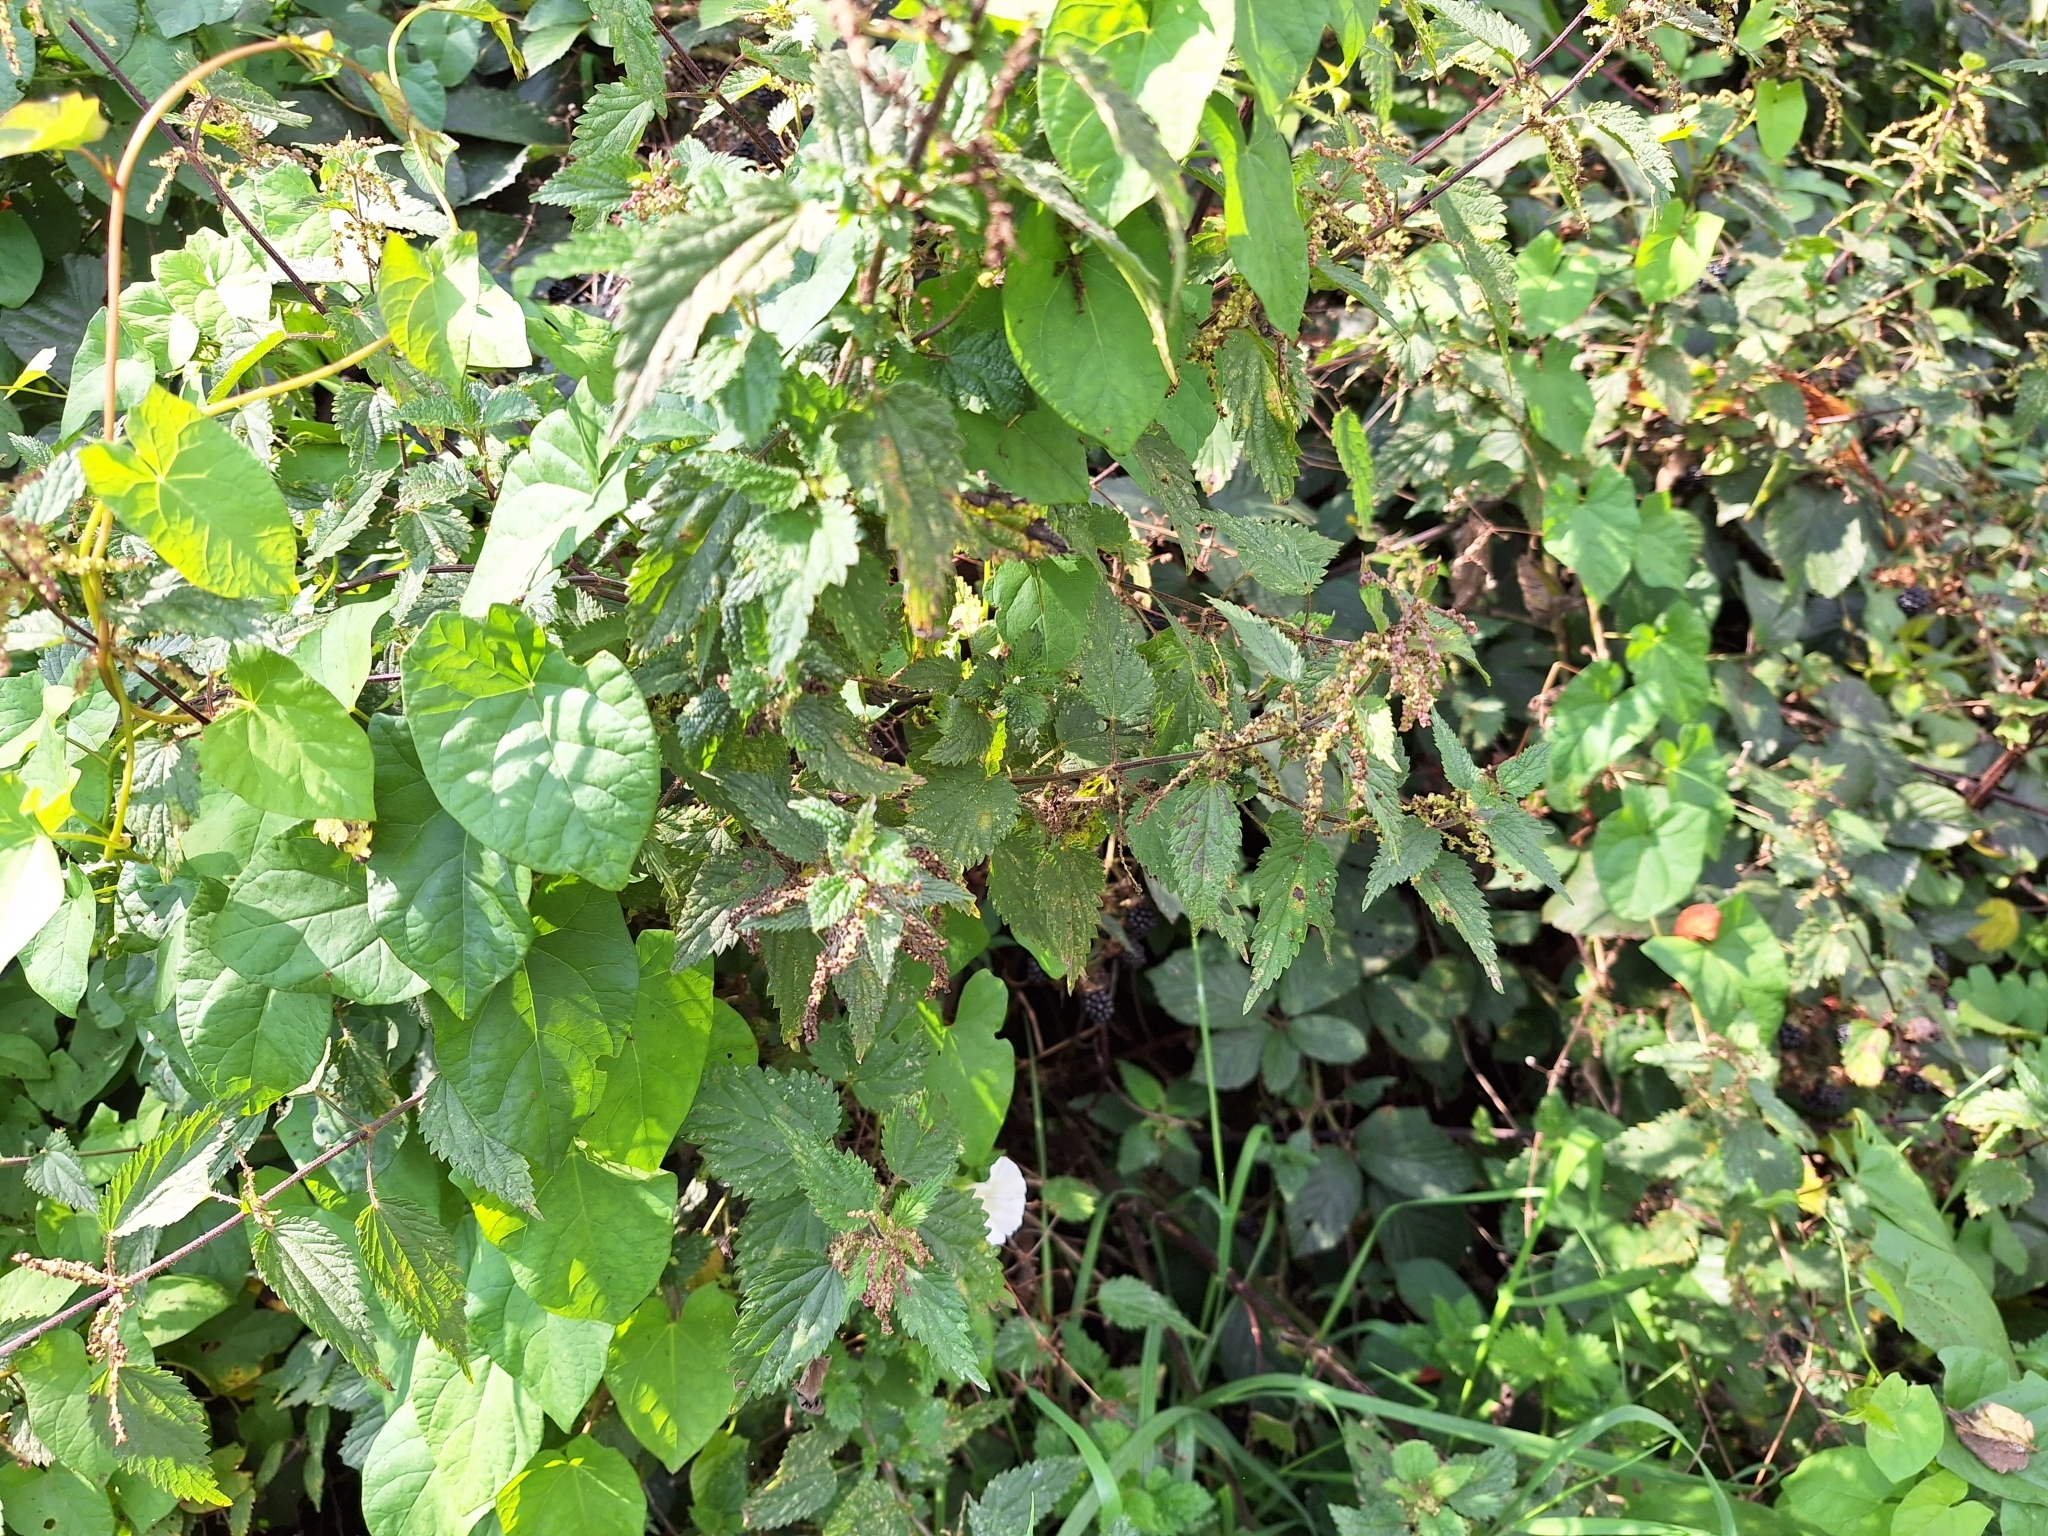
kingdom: Plantae
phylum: Tracheophyta
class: Magnoliopsida
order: Rosales
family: Urticaceae
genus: Urtica
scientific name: Urtica dioica
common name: Common nettle
